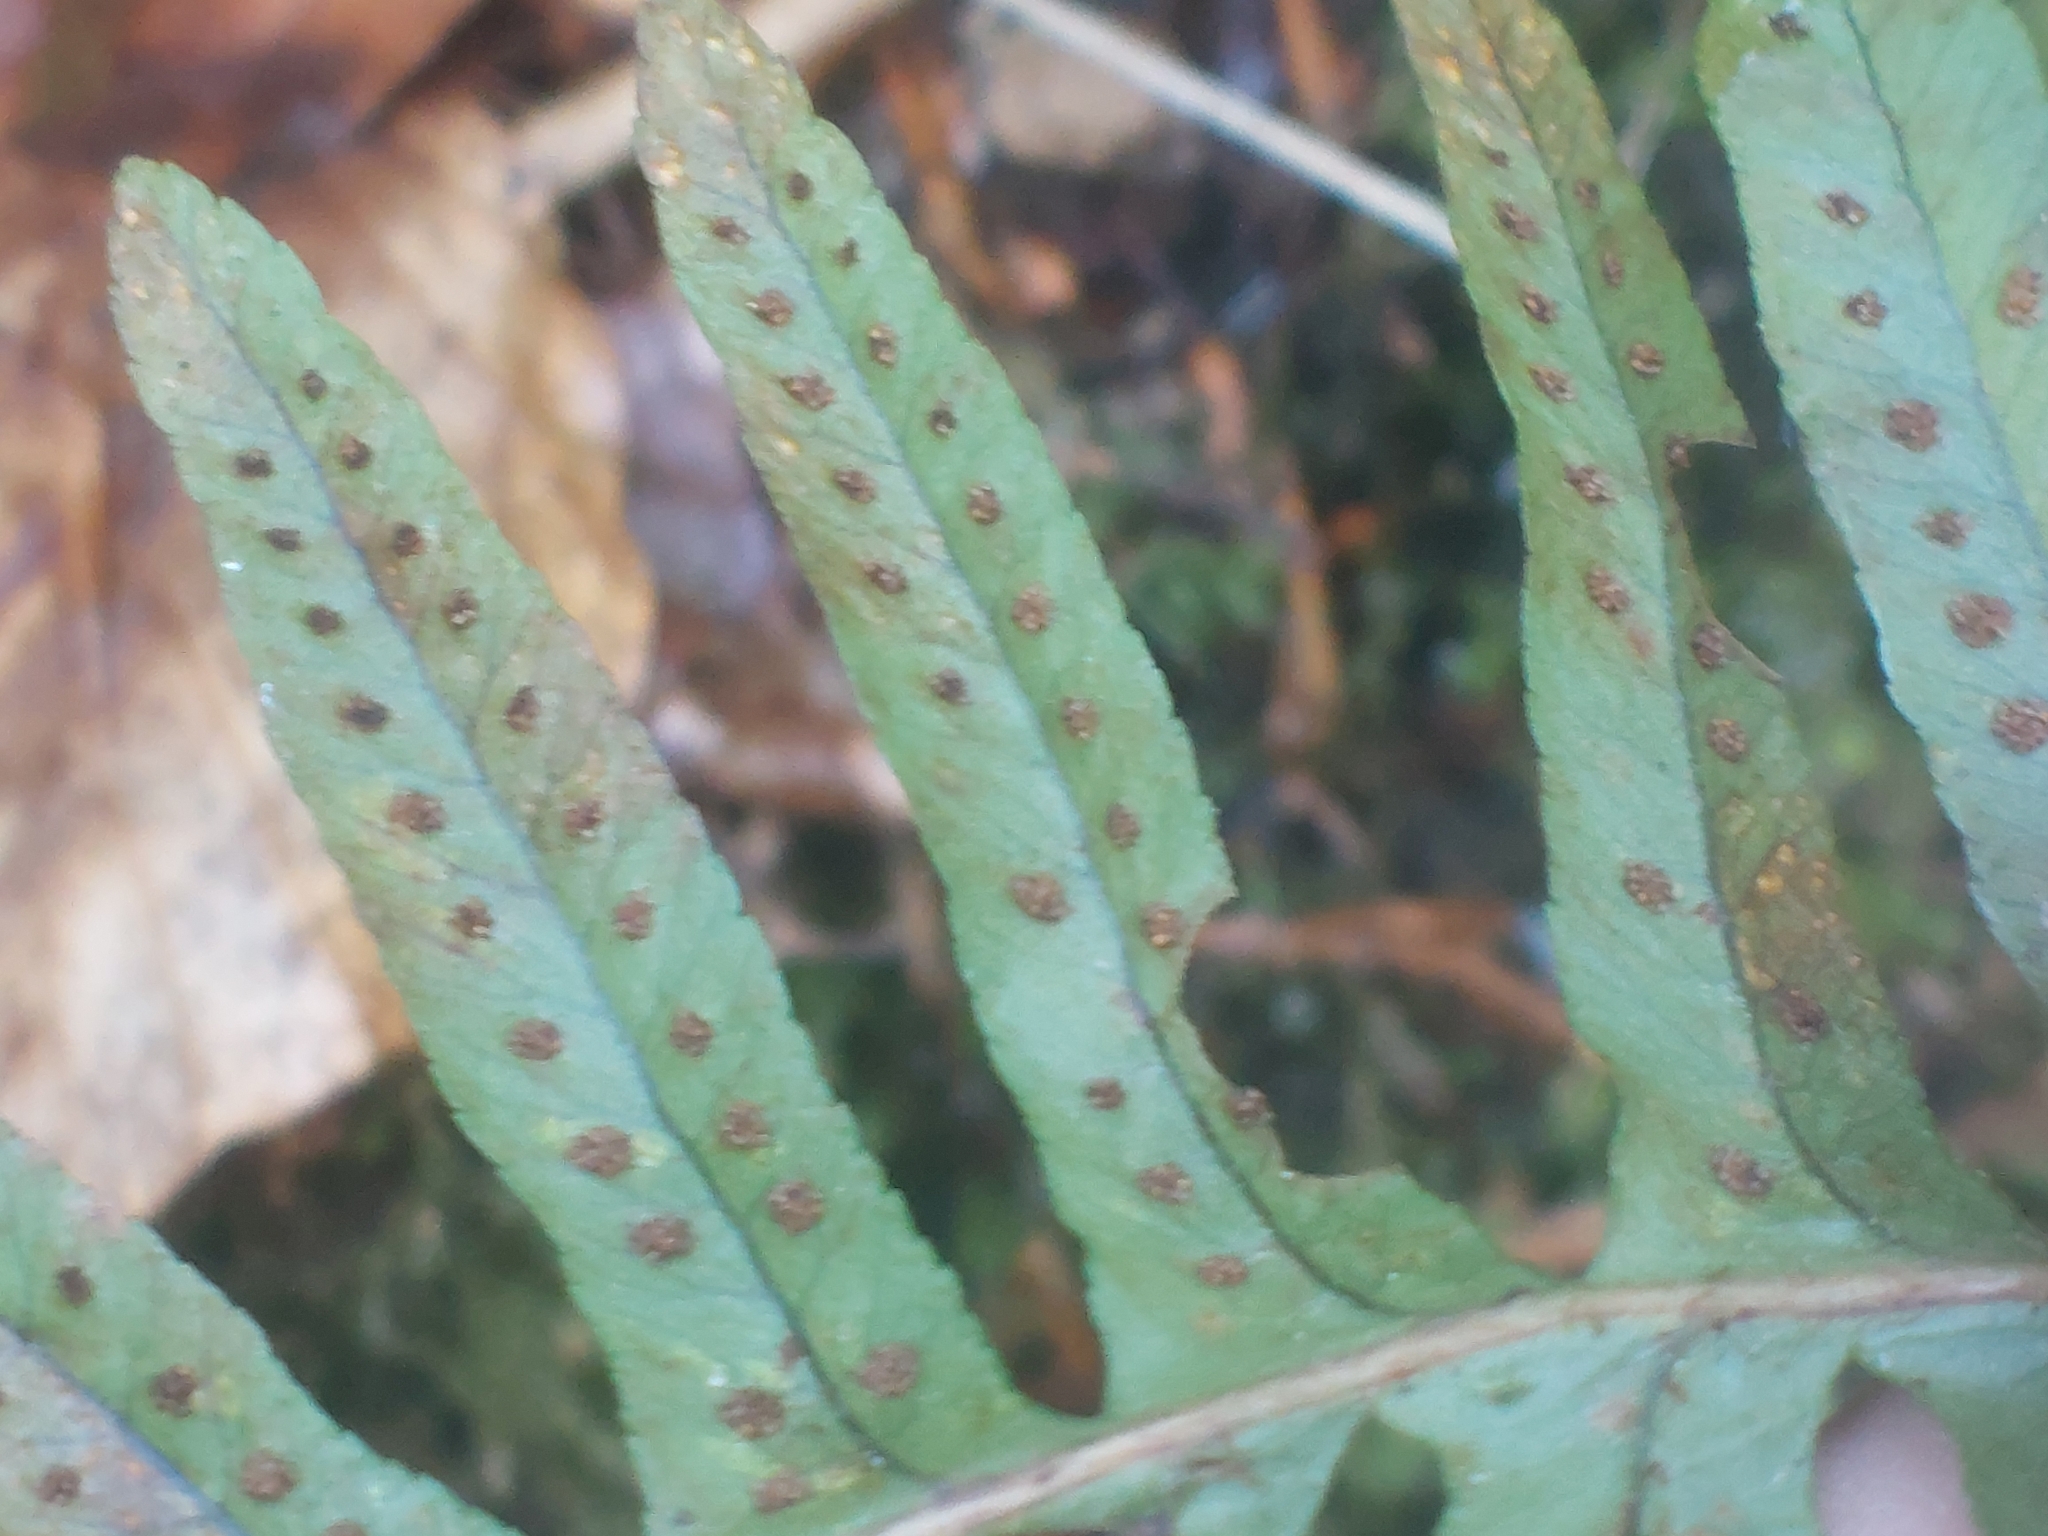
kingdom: Plantae
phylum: Tracheophyta
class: Polypodiopsida
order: Polypodiales
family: Polypodiaceae
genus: Polypodium
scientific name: Polypodium vulgare
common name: Common polypody
